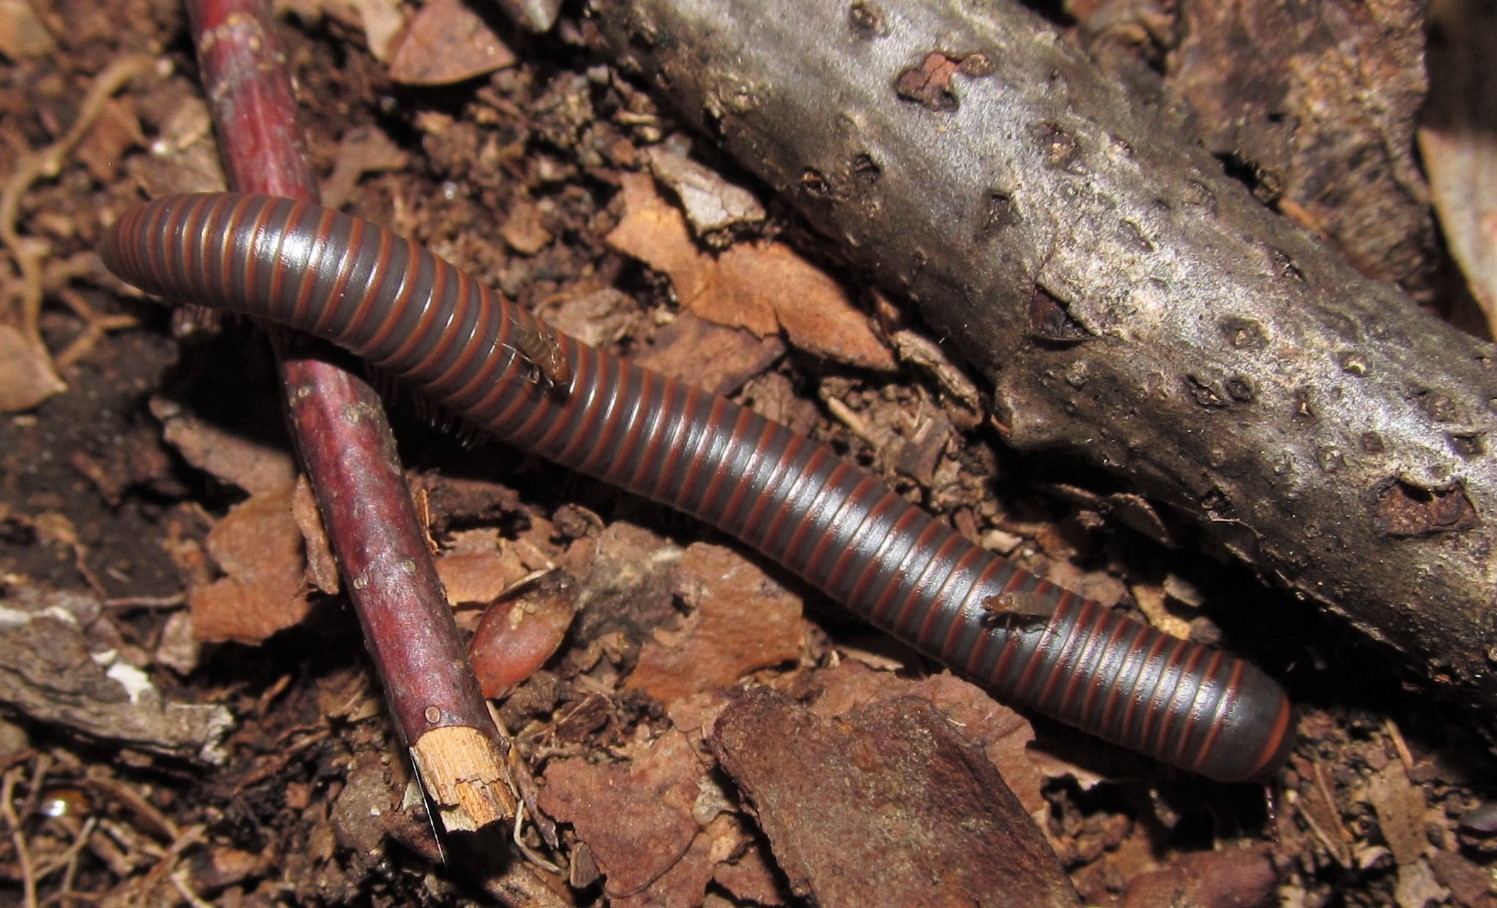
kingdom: Animalia
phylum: Arthropoda
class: Diplopoda
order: Spirobolida
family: Spirobolidae
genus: Narceus
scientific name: Narceus
